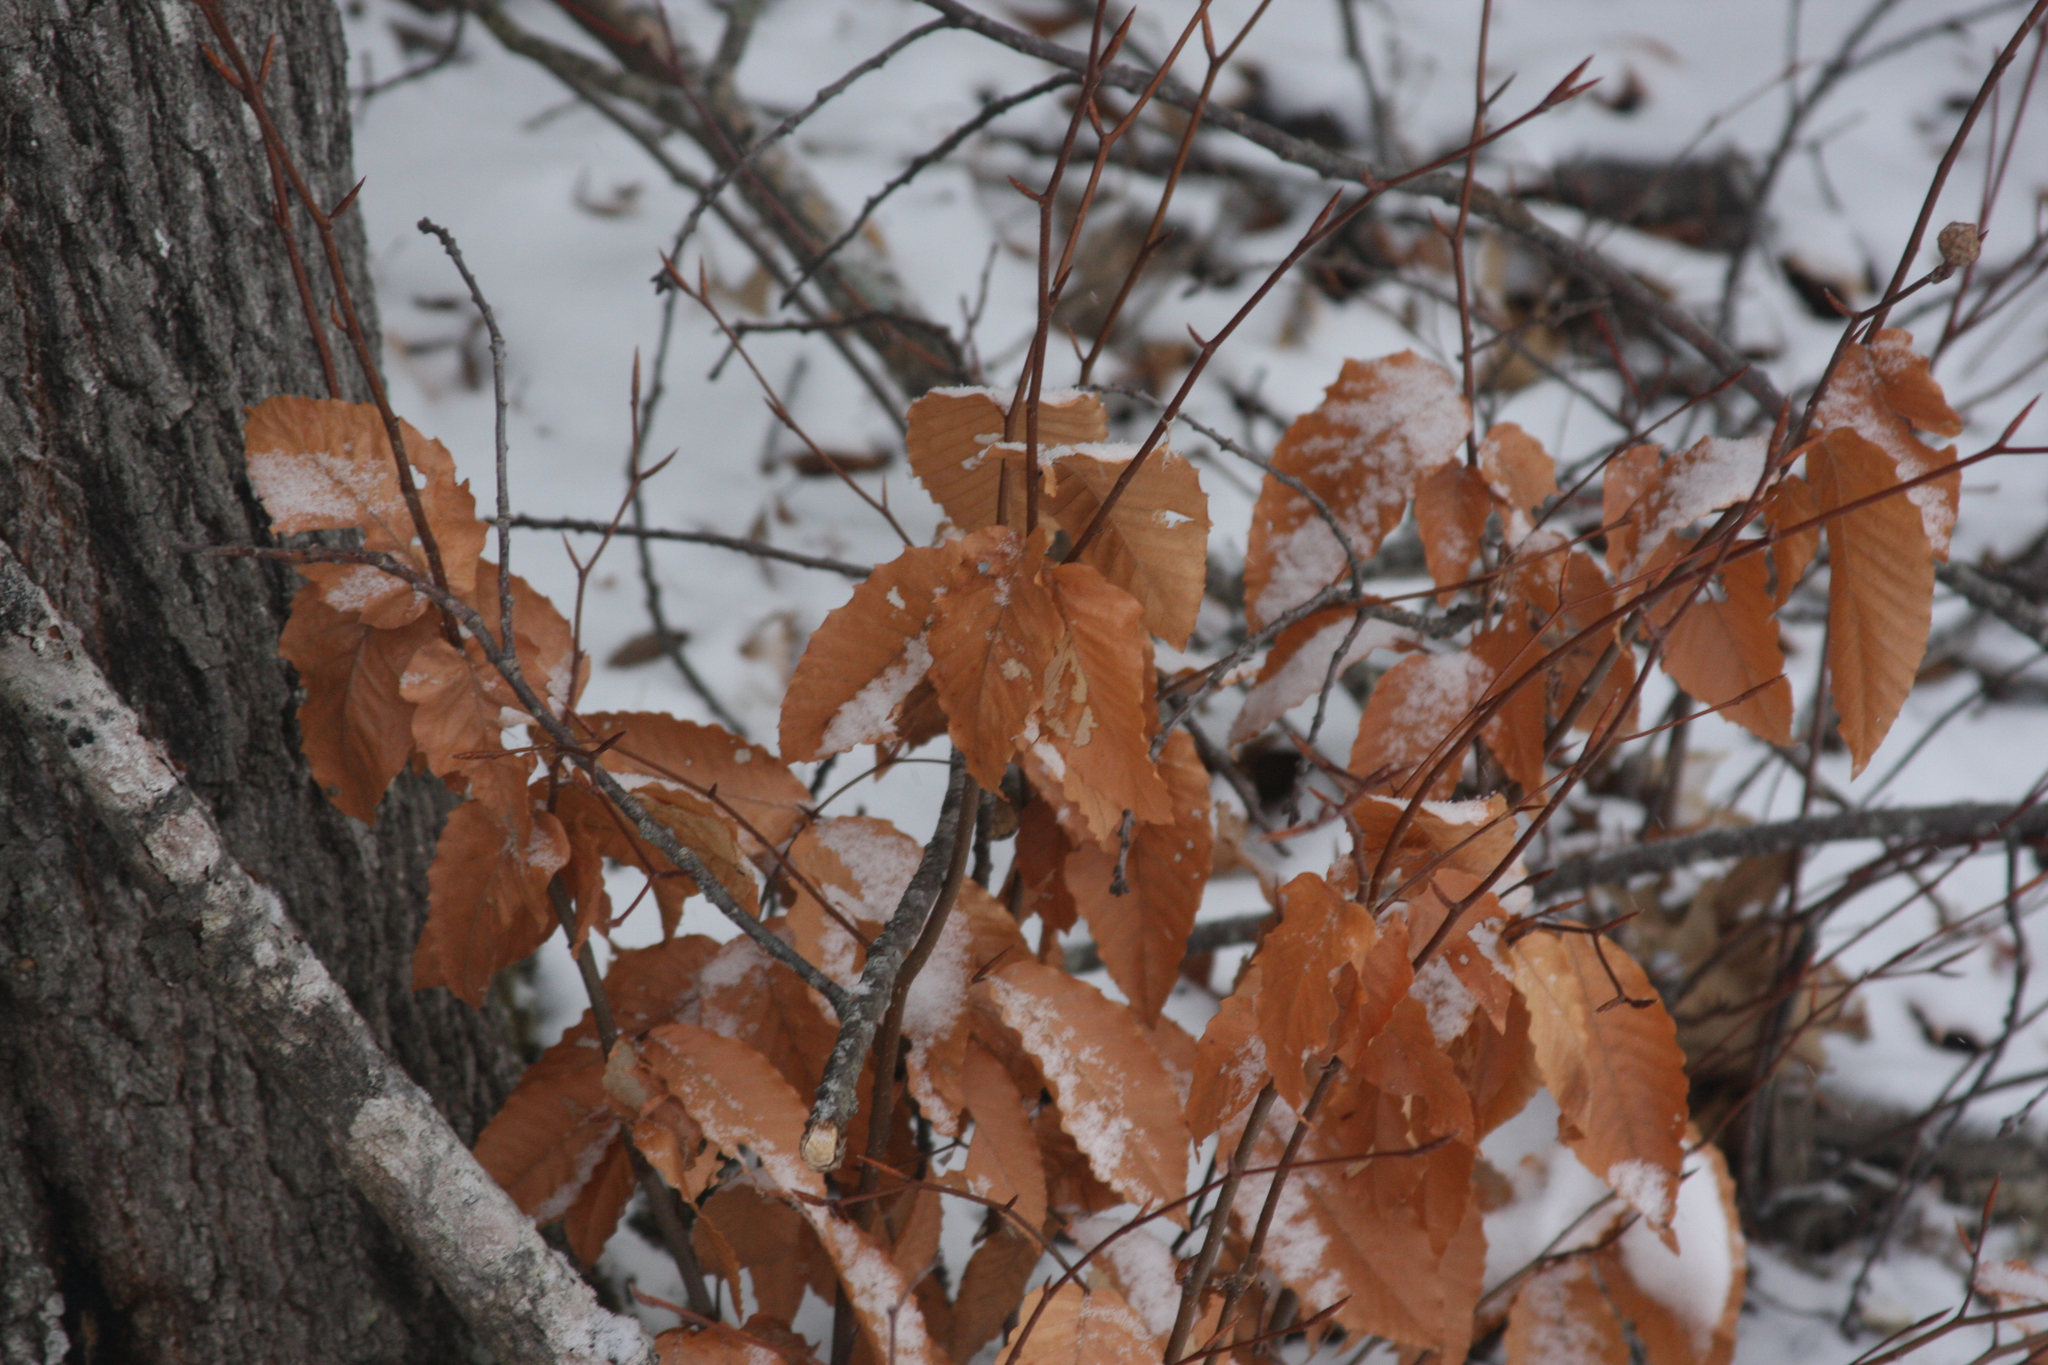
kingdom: Plantae
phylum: Tracheophyta
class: Magnoliopsida
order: Fagales
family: Fagaceae
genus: Fagus
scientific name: Fagus grandifolia
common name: American beech
